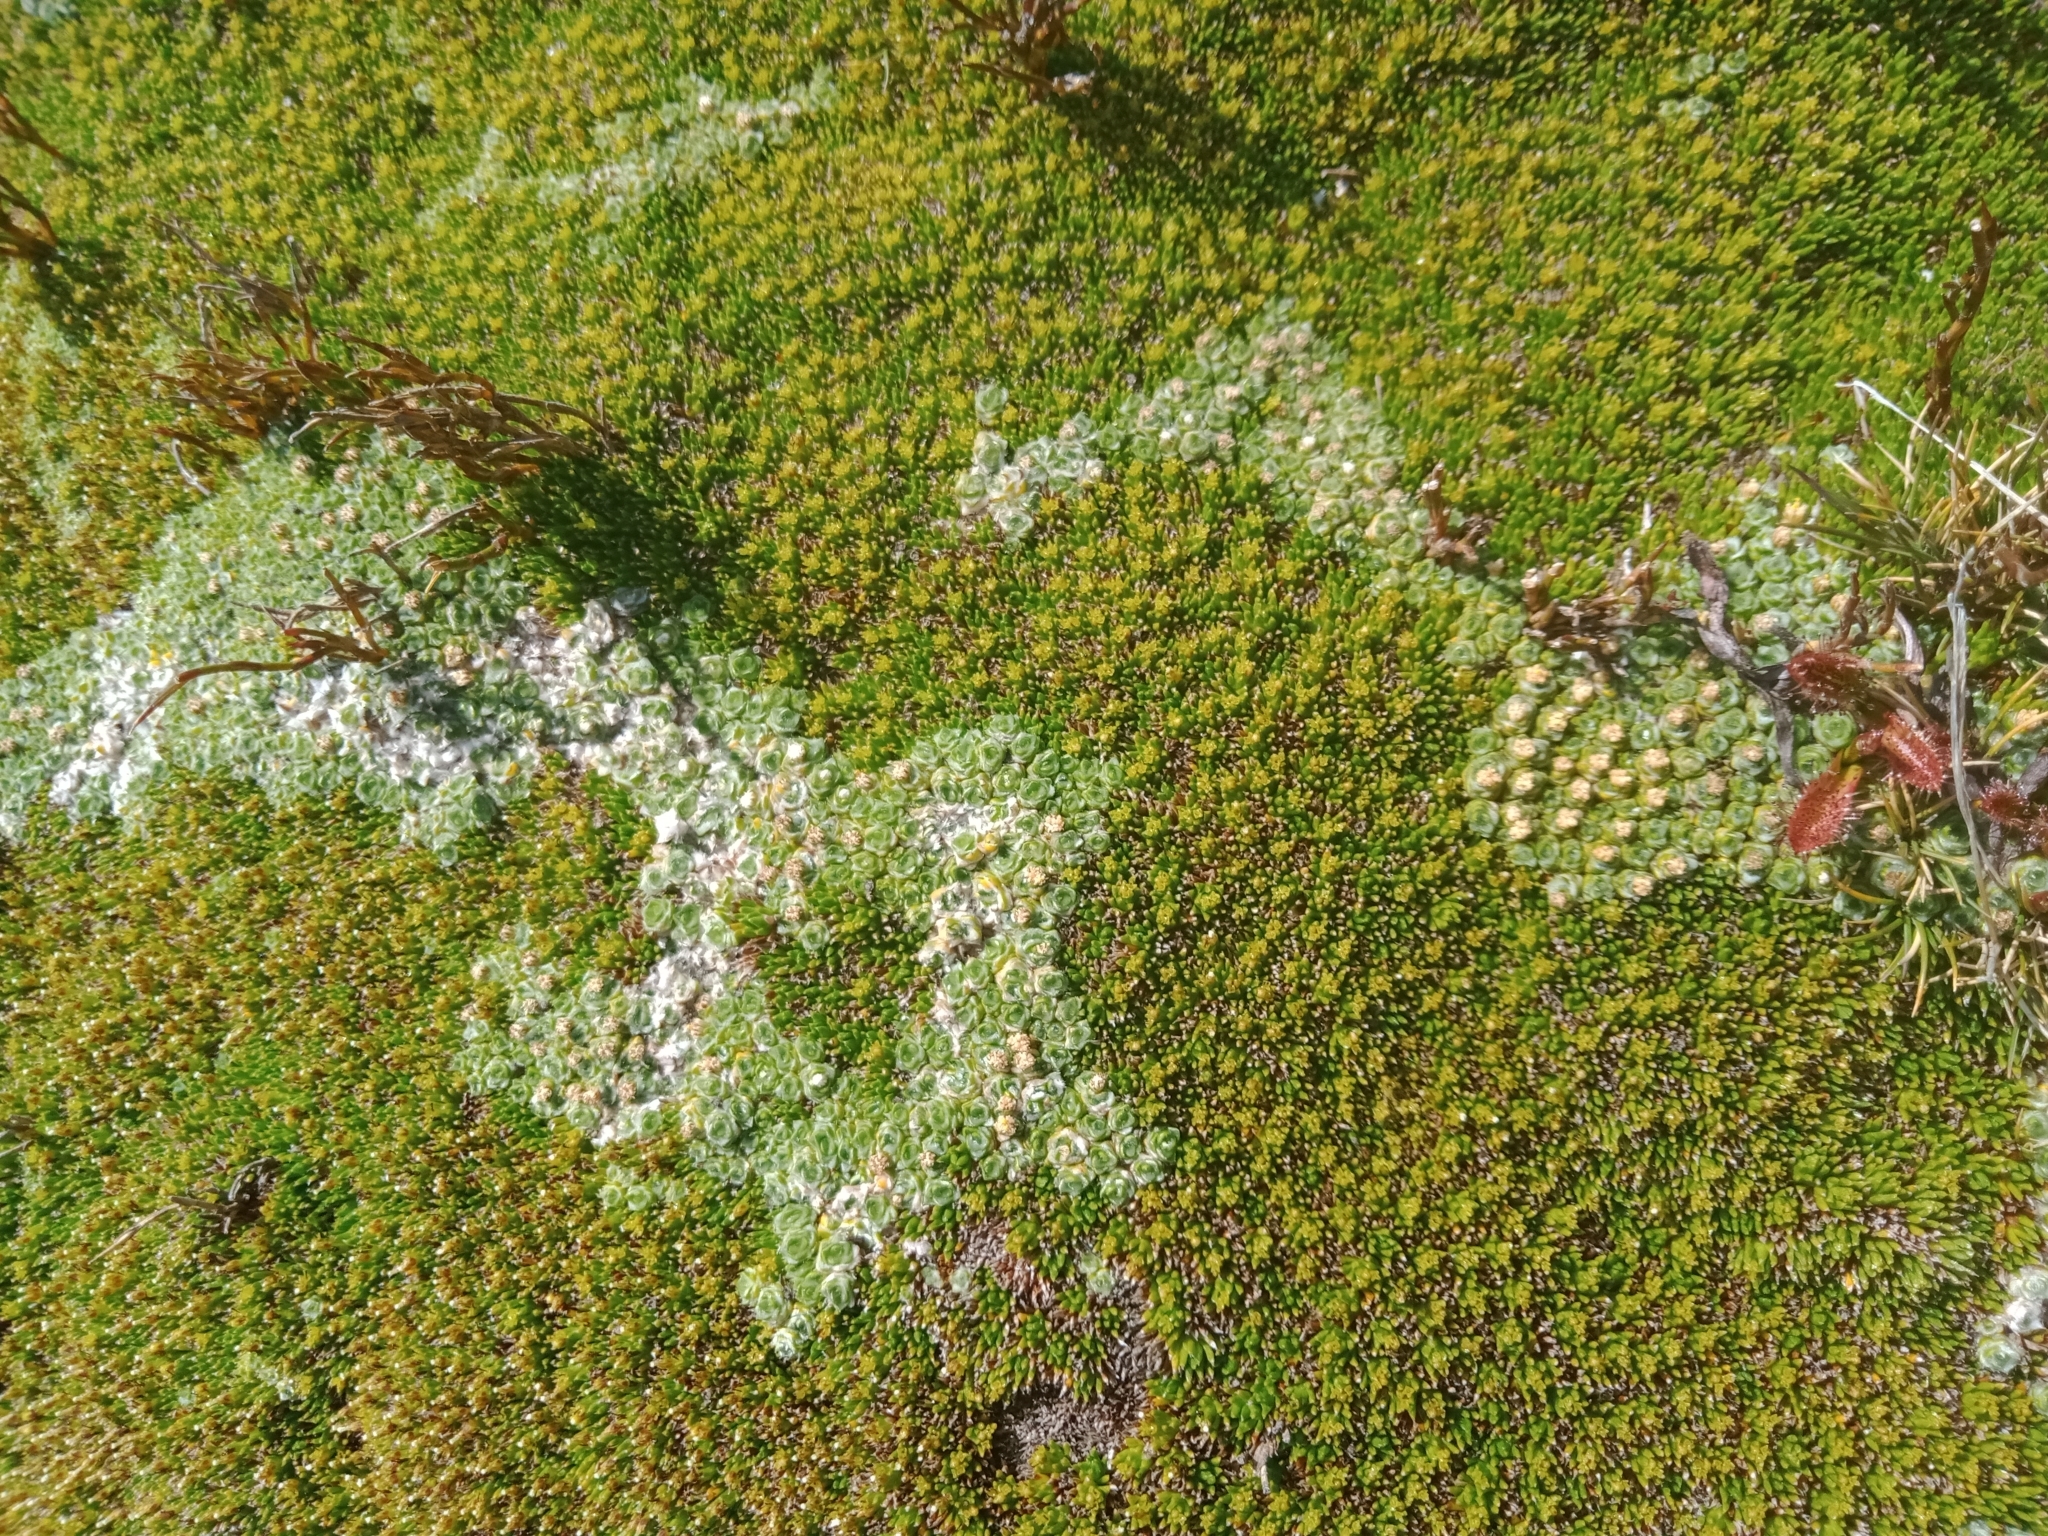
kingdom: Plantae
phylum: Tracheophyta
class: Magnoliopsida
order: Asterales
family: Asteraceae
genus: Abrotanella
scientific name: Abrotanella forsteroides
